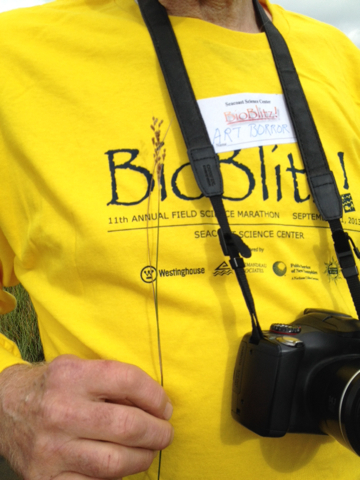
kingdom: Plantae
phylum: Tracheophyta
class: Liliopsida
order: Poales
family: Juncaceae
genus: Juncus
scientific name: Juncus gerardi
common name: Saltmarsh rush
